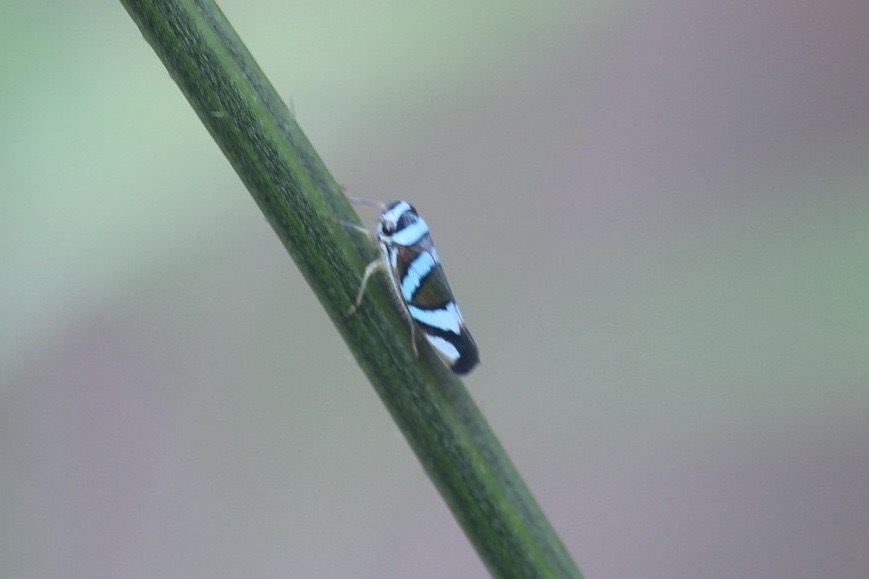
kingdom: Animalia
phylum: Arthropoda
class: Insecta
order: Hemiptera
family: Cicadellidae
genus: Macugonalia
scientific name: Macugonalia moesta
